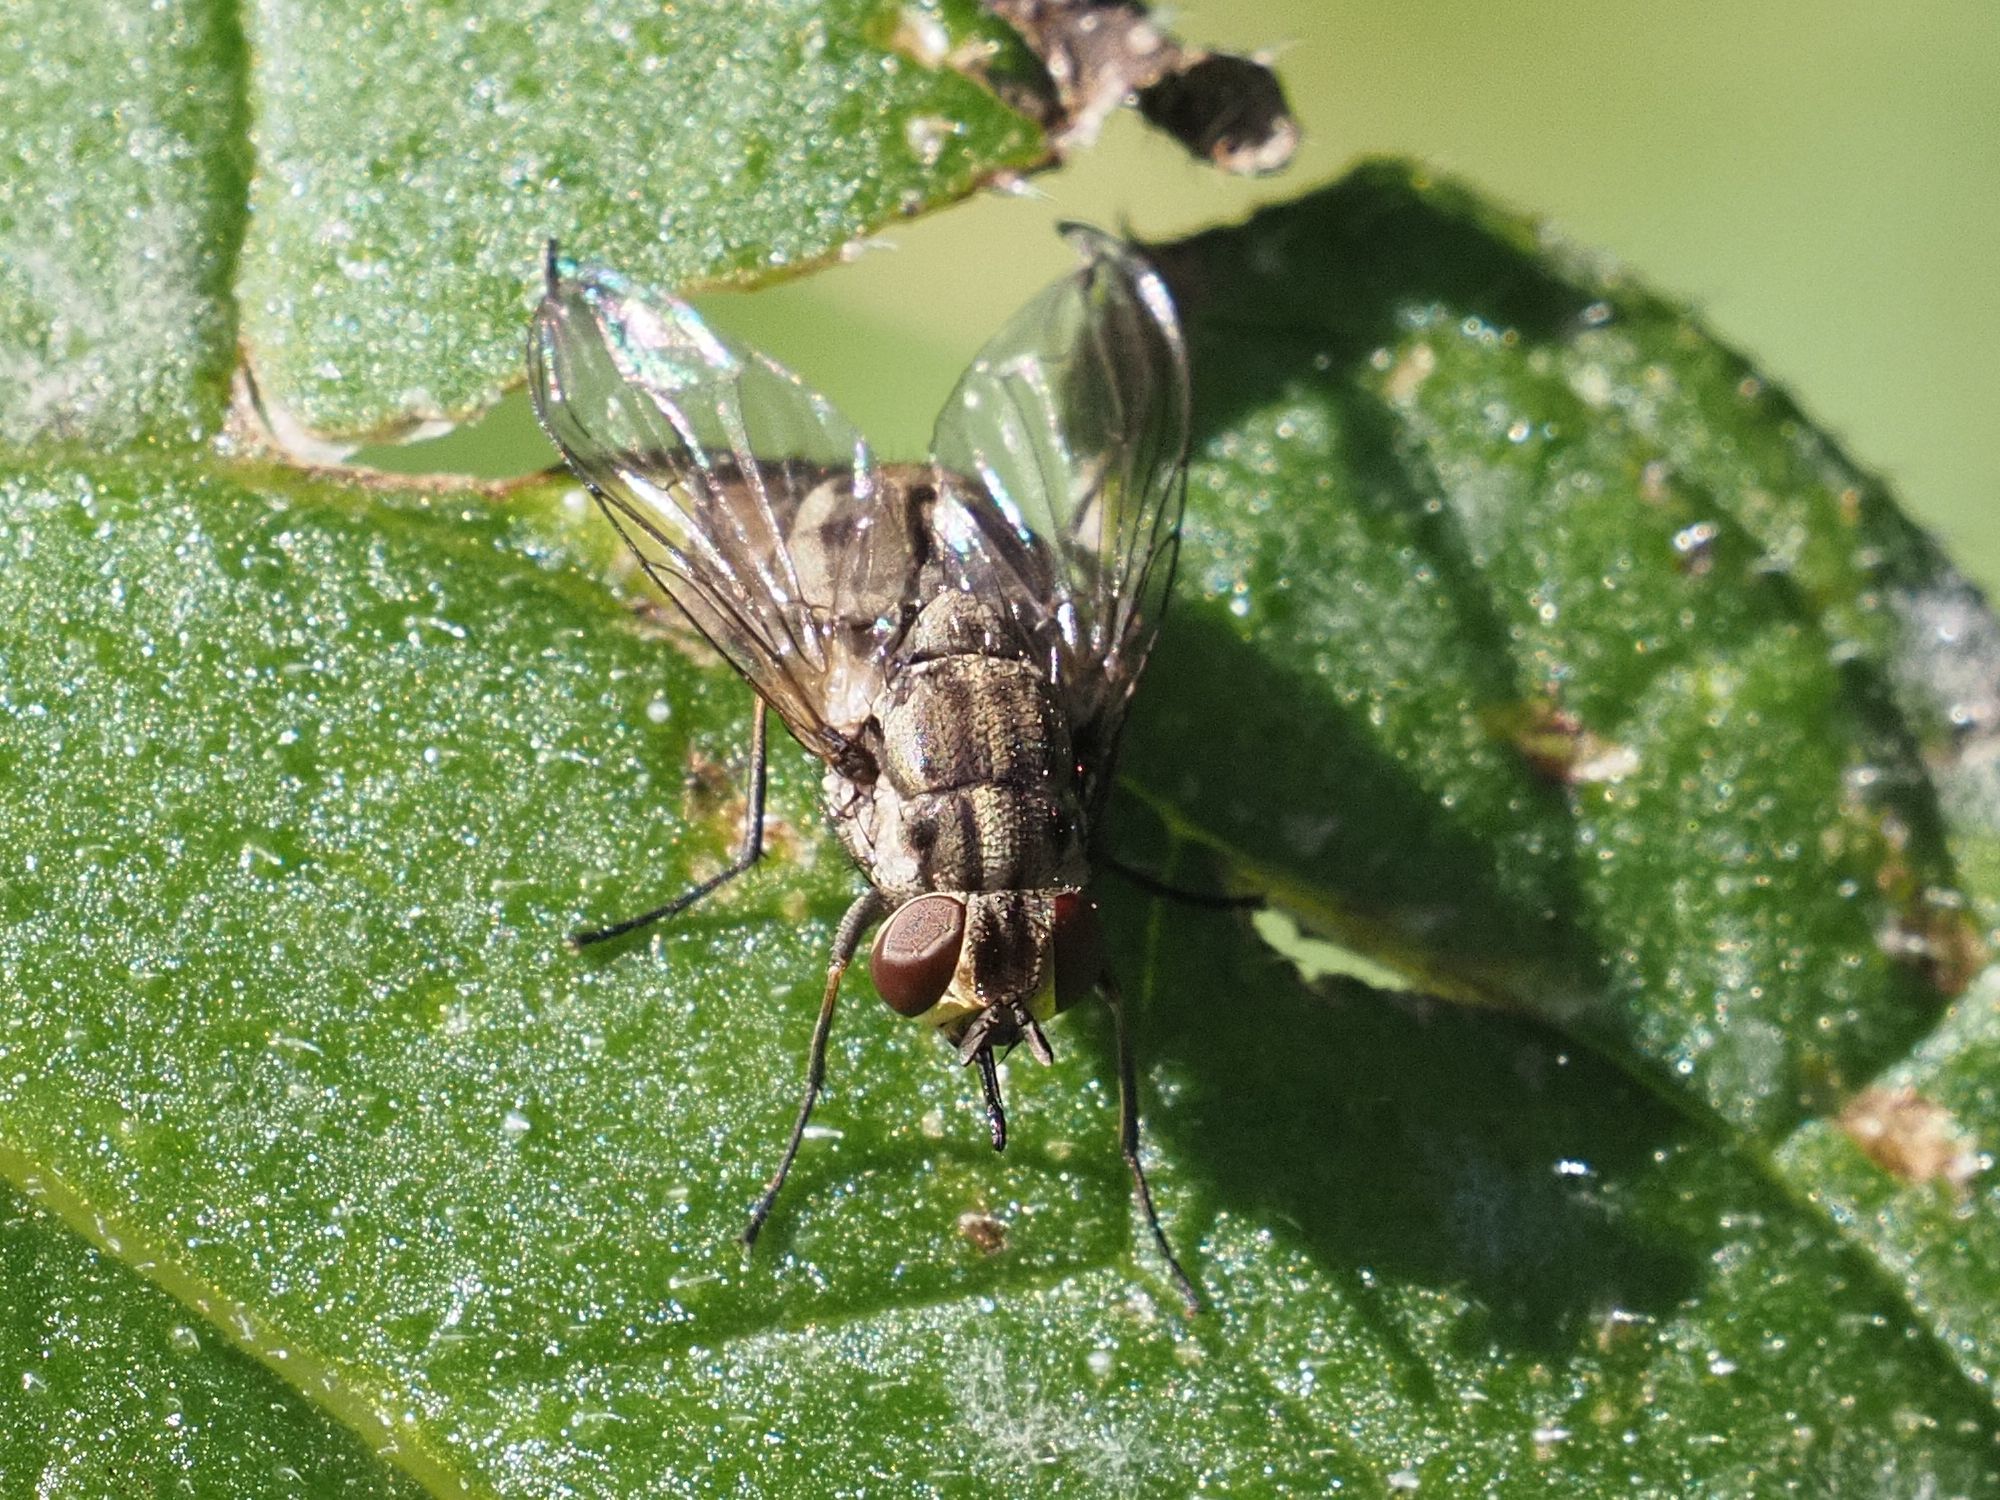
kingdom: Animalia
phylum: Arthropoda
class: Insecta
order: Diptera
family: Muscidae
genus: Stomoxys
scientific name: Stomoxys calcitrans
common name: Stable fly
